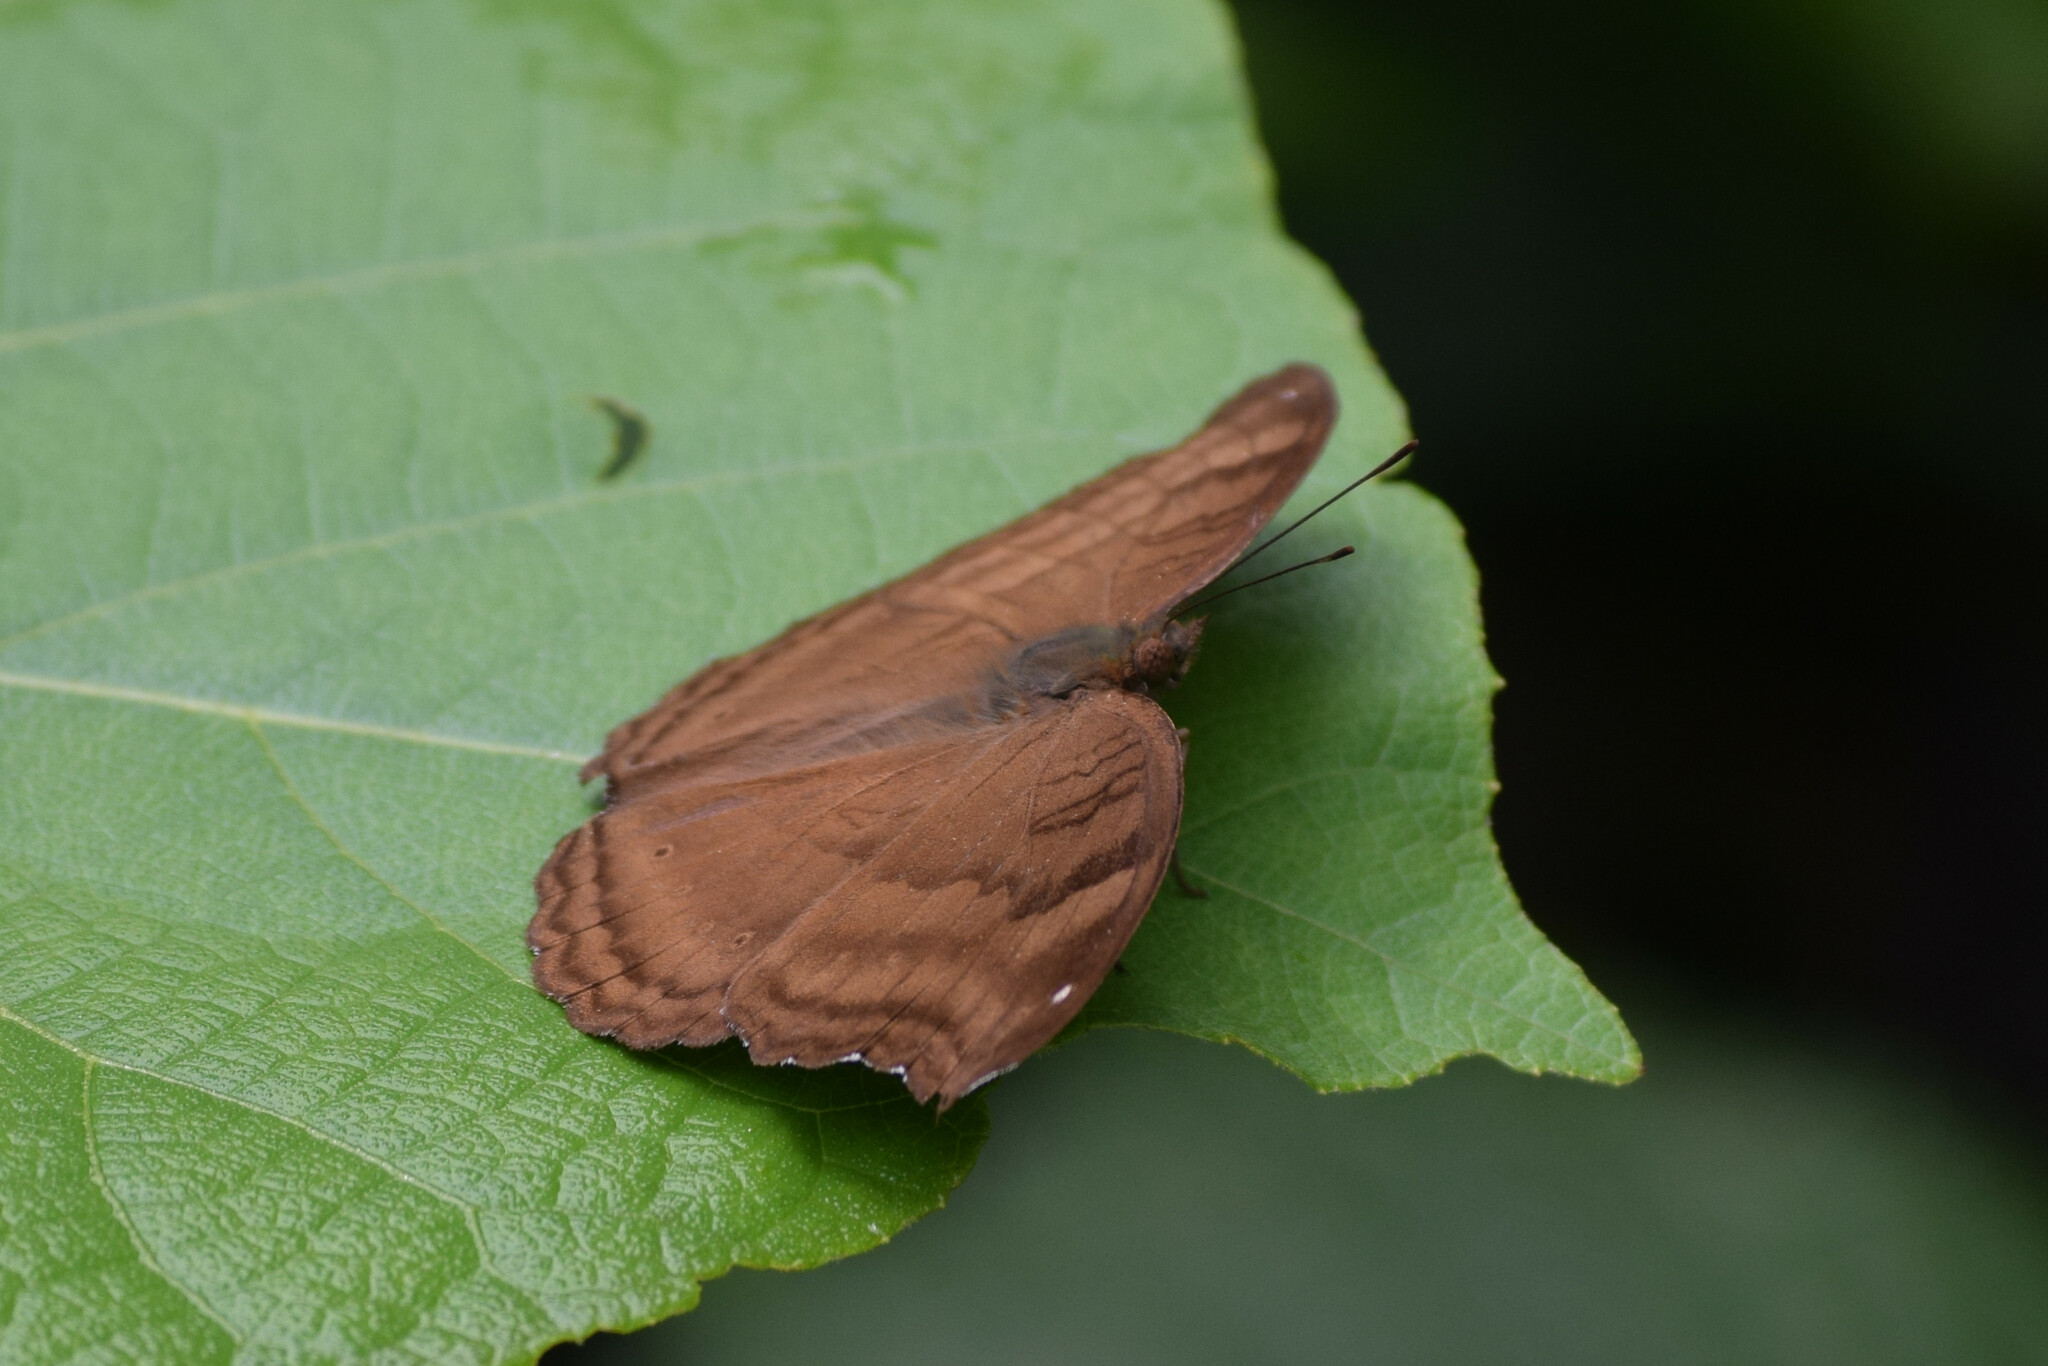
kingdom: Animalia
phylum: Arthropoda
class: Insecta
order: Lepidoptera
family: Nymphalidae
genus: Junonia
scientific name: Junonia iphita
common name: Chocolate pansy
